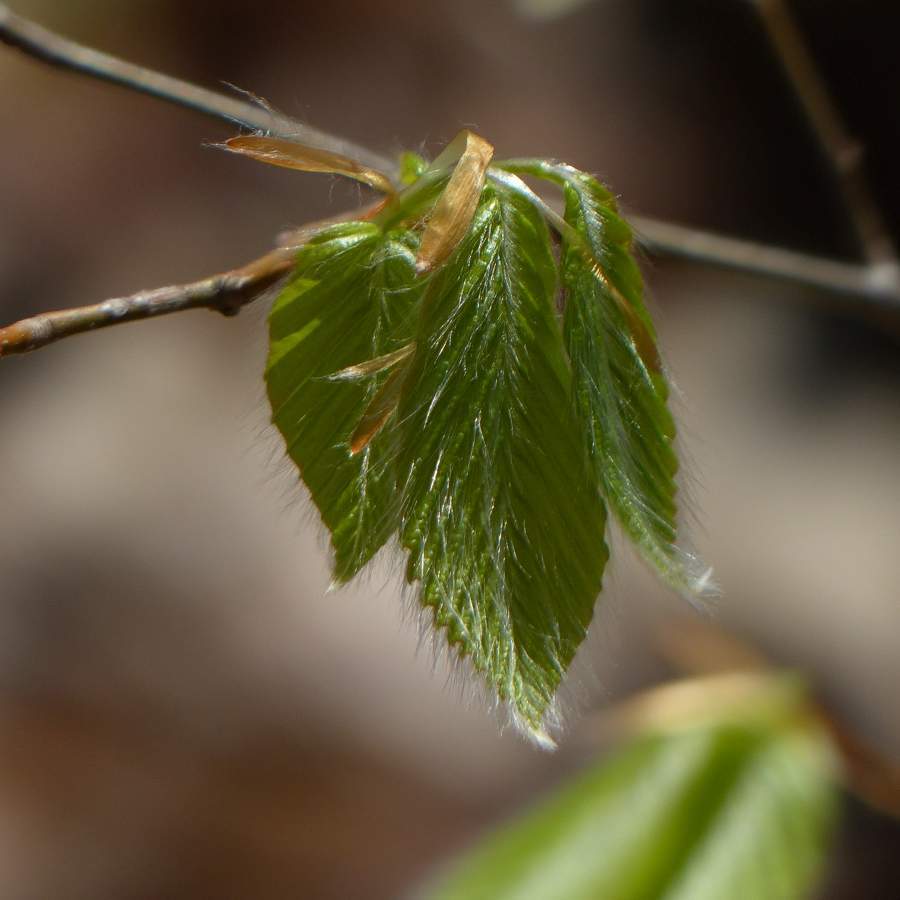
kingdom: Plantae
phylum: Tracheophyta
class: Magnoliopsida
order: Fagales
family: Fagaceae
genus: Fagus
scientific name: Fagus grandifolia
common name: American beech
